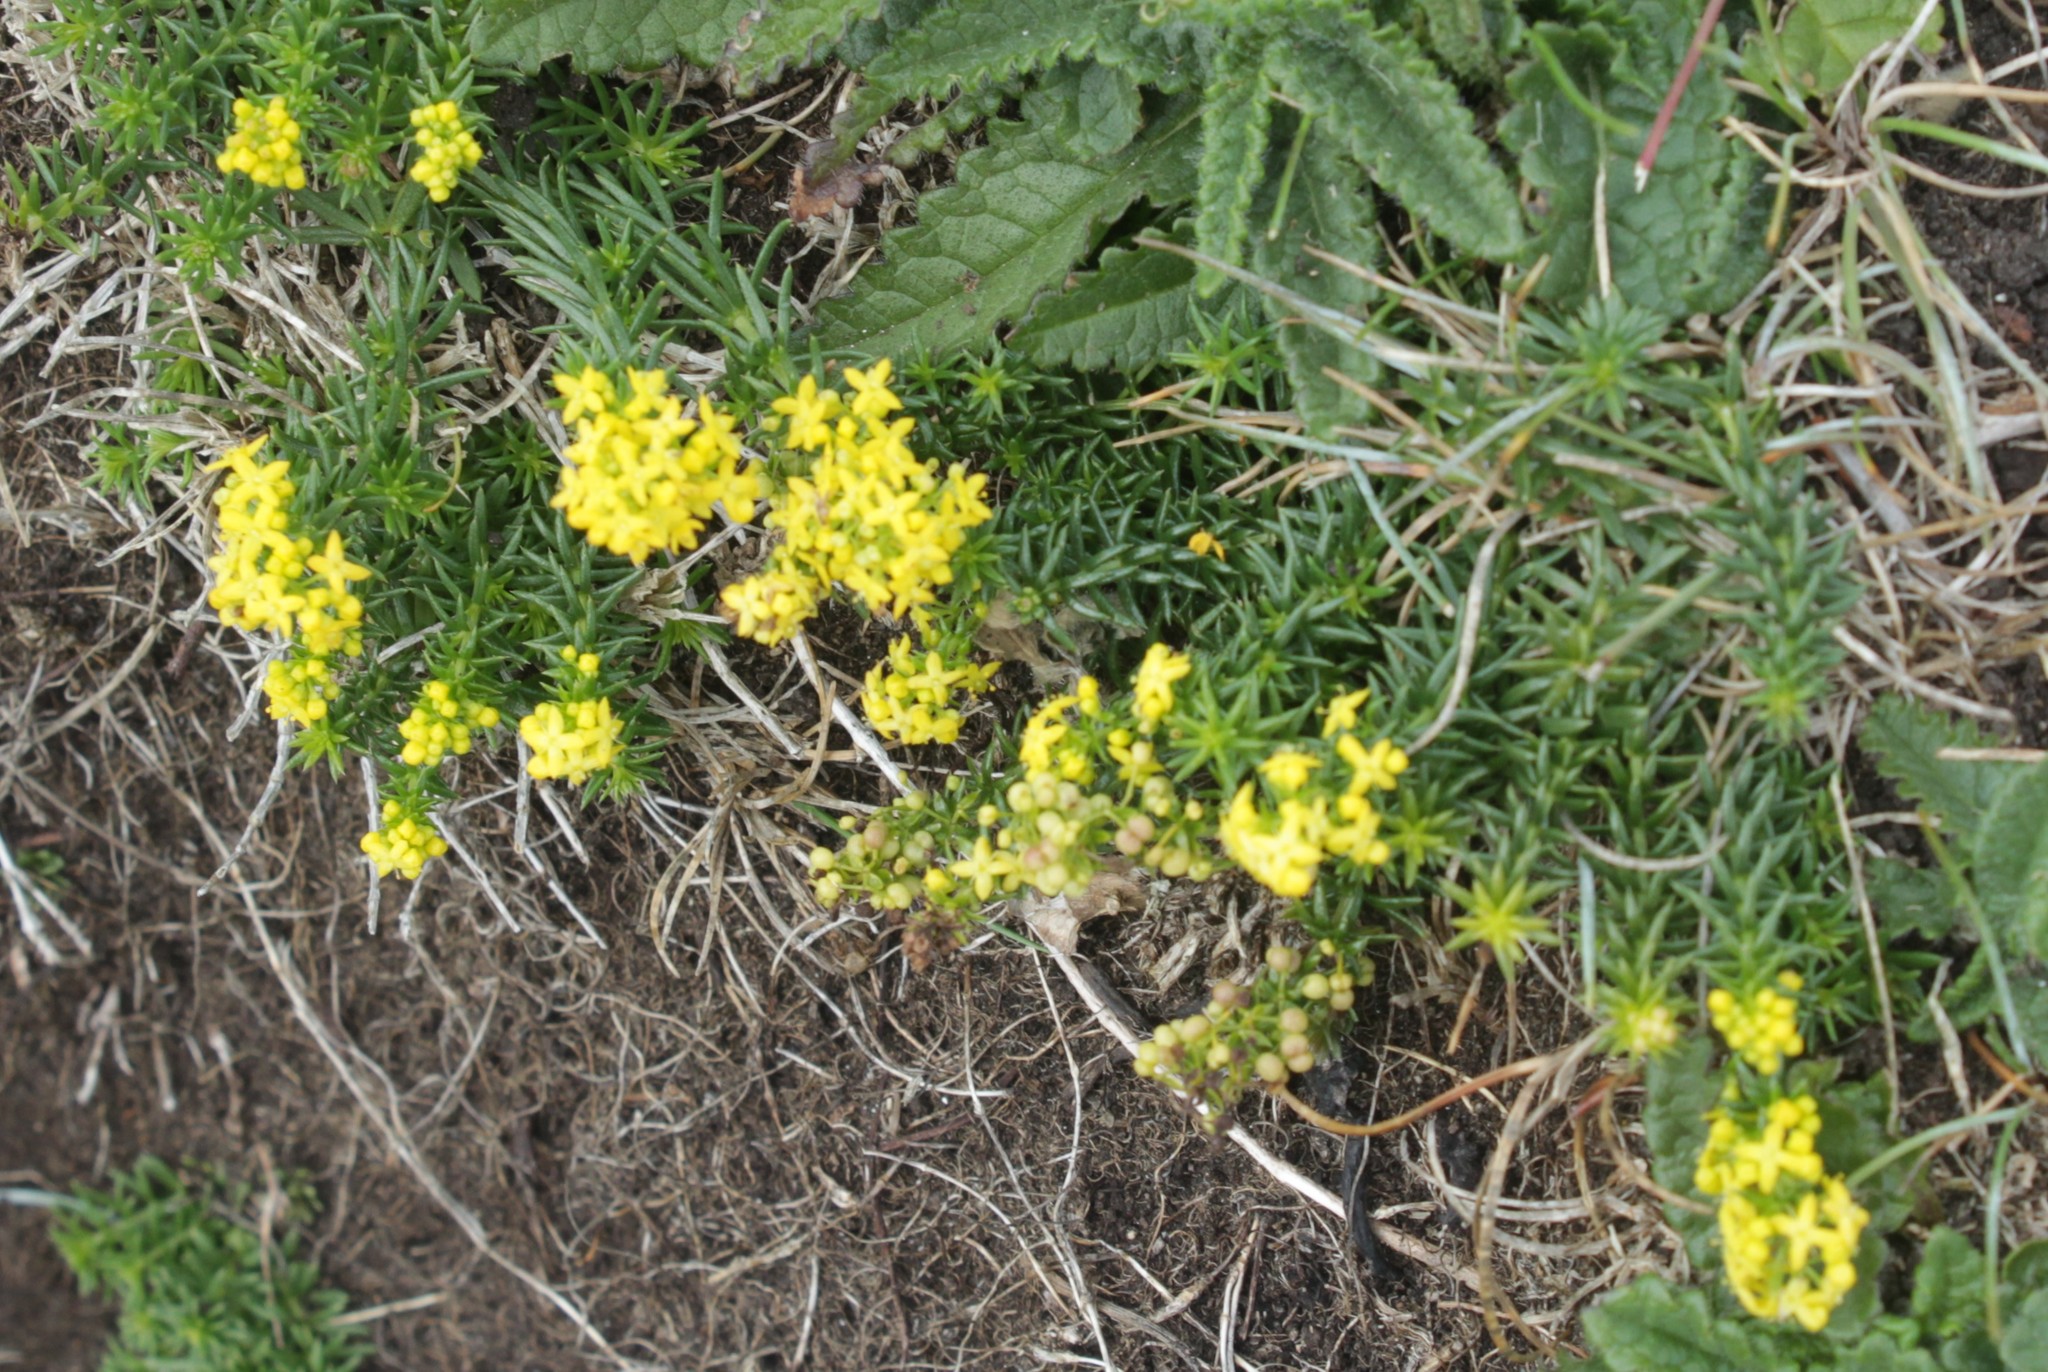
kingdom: Plantae
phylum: Tracheophyta
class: Magnoliopsida
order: Gentianales
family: Rubiaceae
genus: Galium
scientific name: Galium verum
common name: Lady's bedstraw
